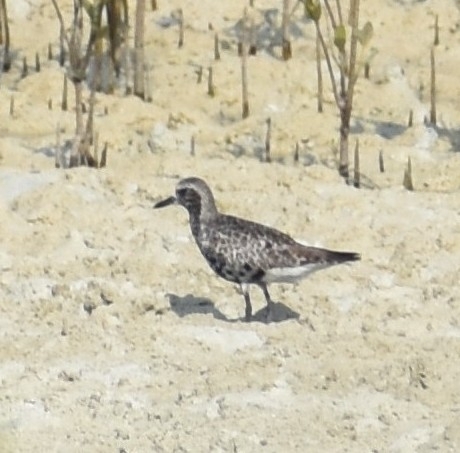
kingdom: Animalia
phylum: Chordata
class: Aves
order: Charadriiformes
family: Charadriidae
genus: Pluvialis
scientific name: Pluvialis squatarola
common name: Grey plover
